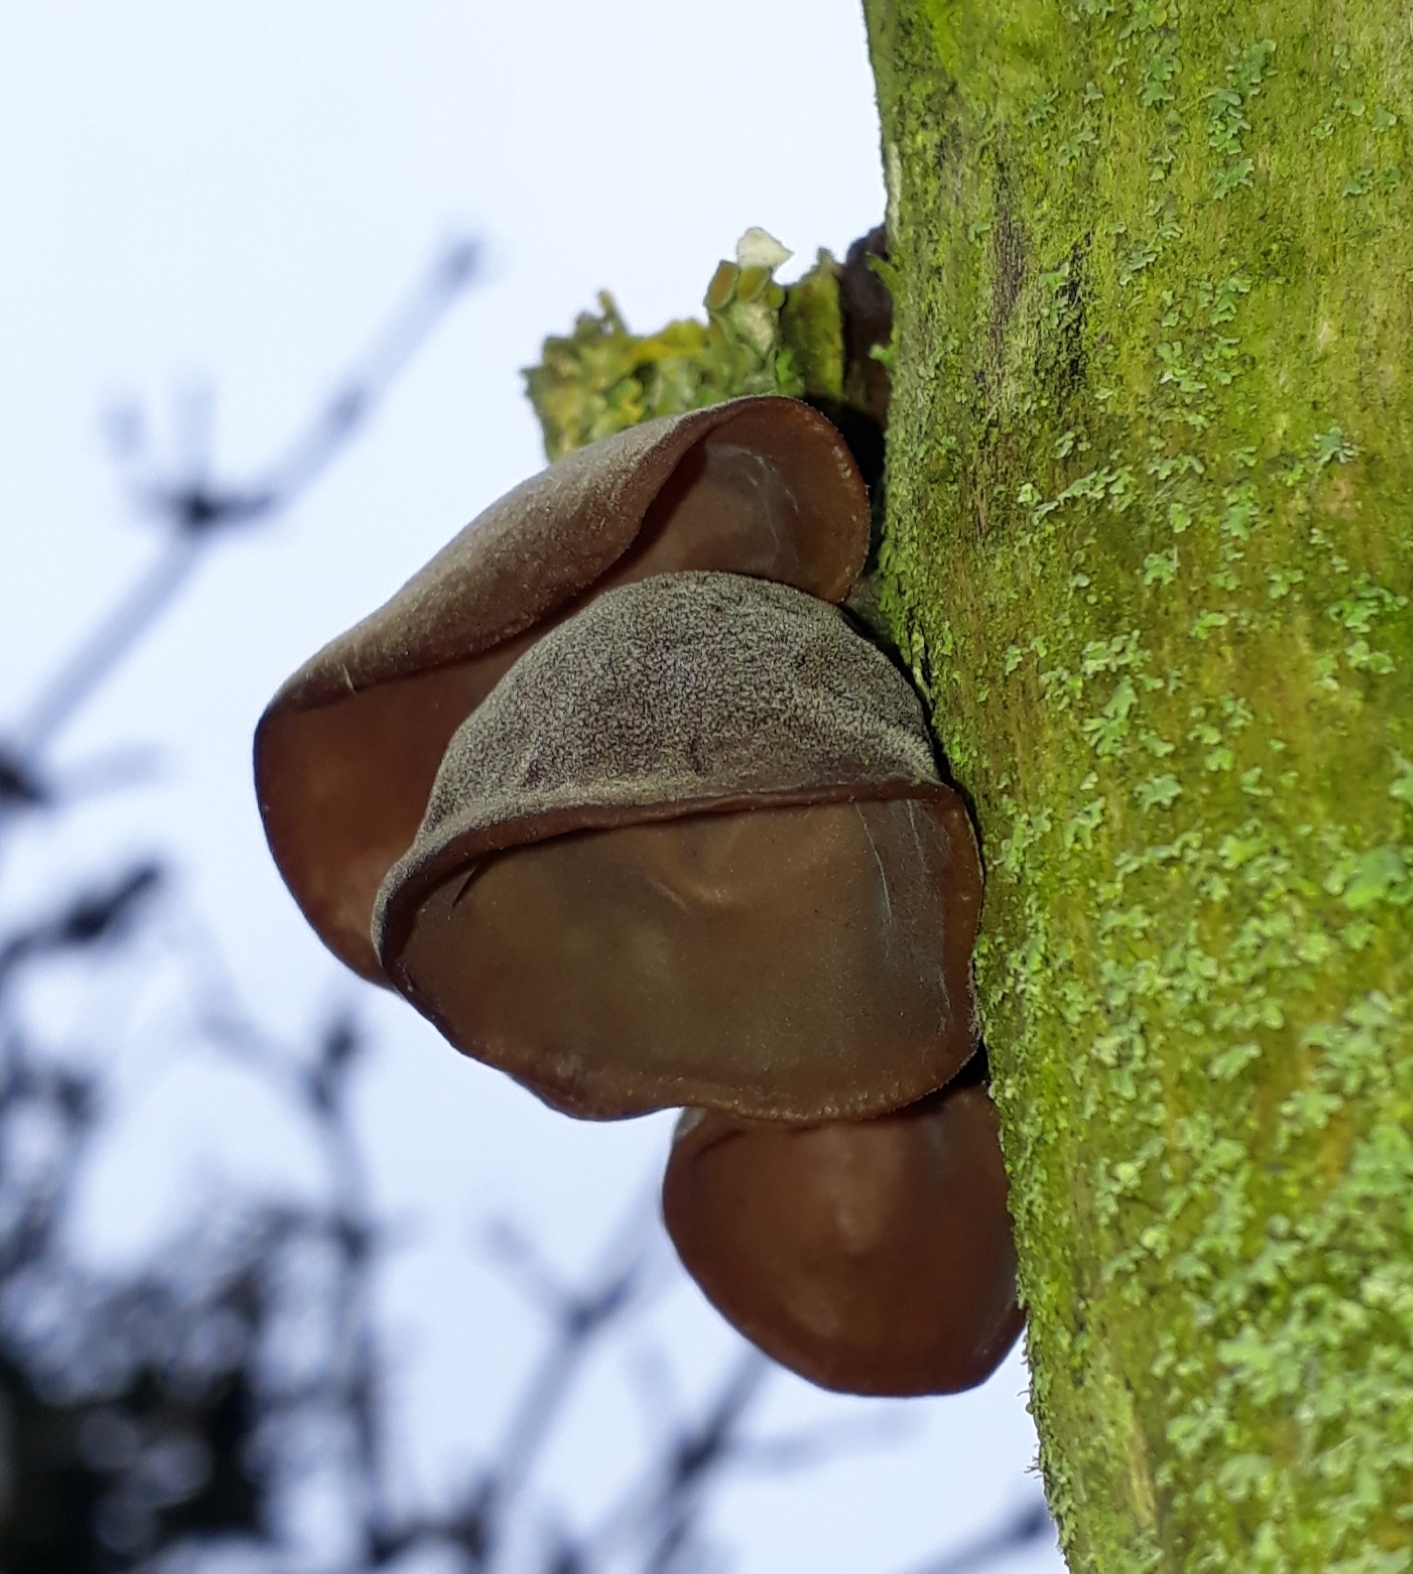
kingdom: Fungi
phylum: Basidiomycota
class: Agaricomycetes
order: Auriculariales
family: Auriculariaceae
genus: Auricularia
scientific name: Auricularia auricula-judae
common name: Jelly ear
